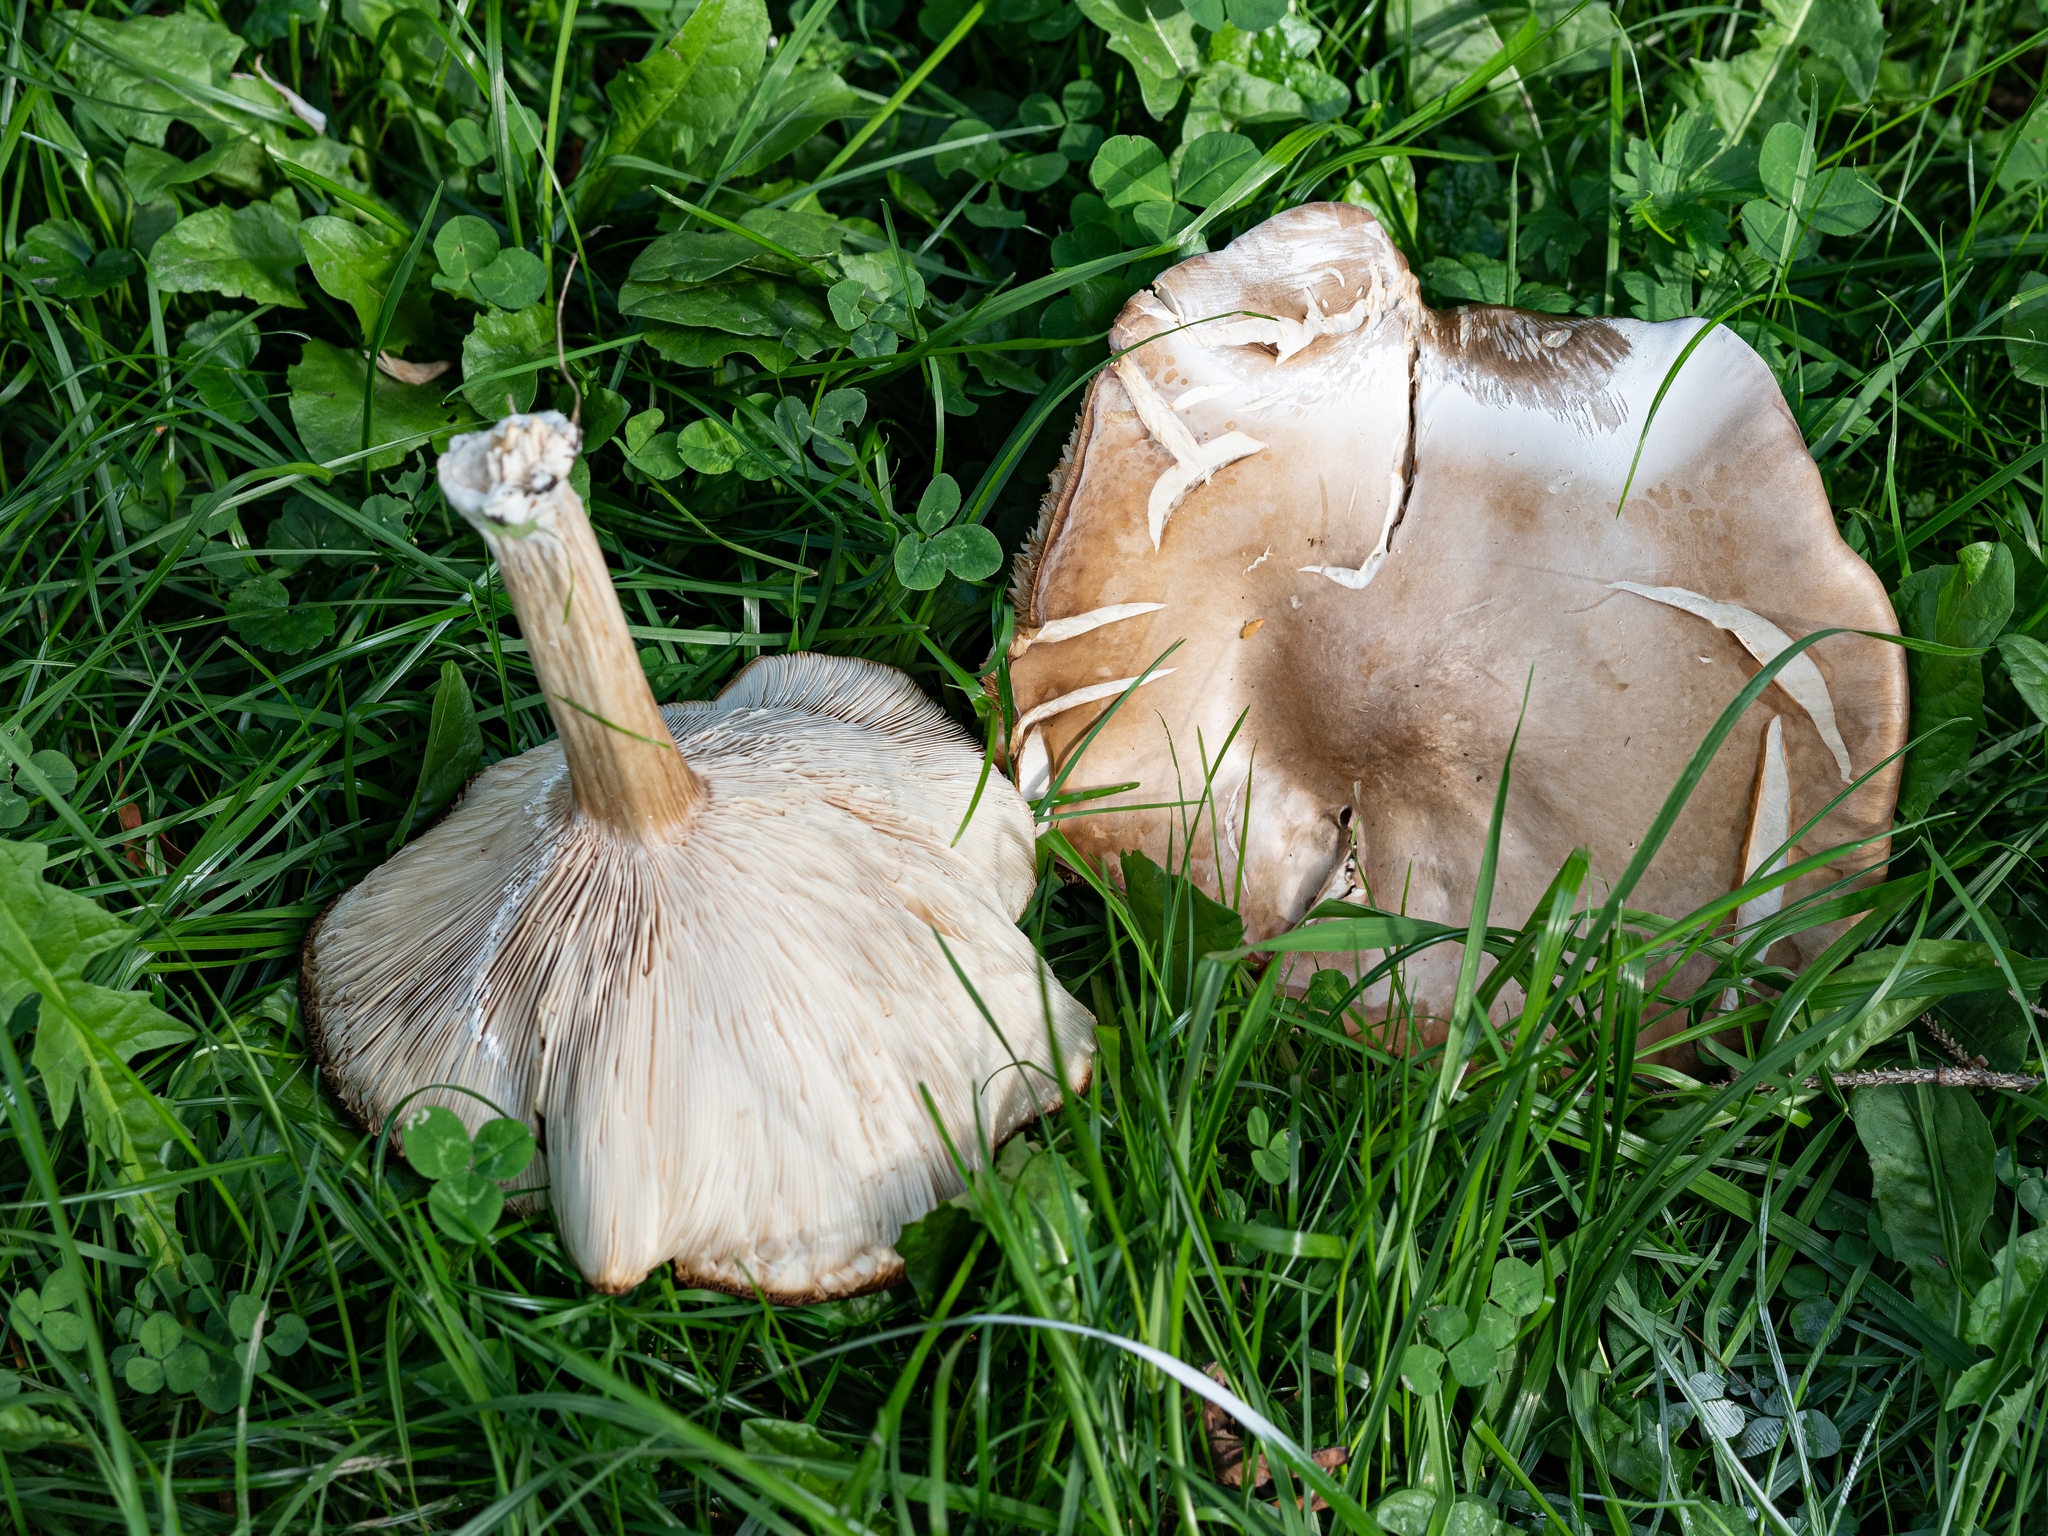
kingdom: Fungi
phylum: Basidiomycota
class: Agaricomycetes
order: Agaricales
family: Tricholomataceae
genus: Melanoleuca
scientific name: Melanoleuca grammopodia
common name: Grooved cavalier
